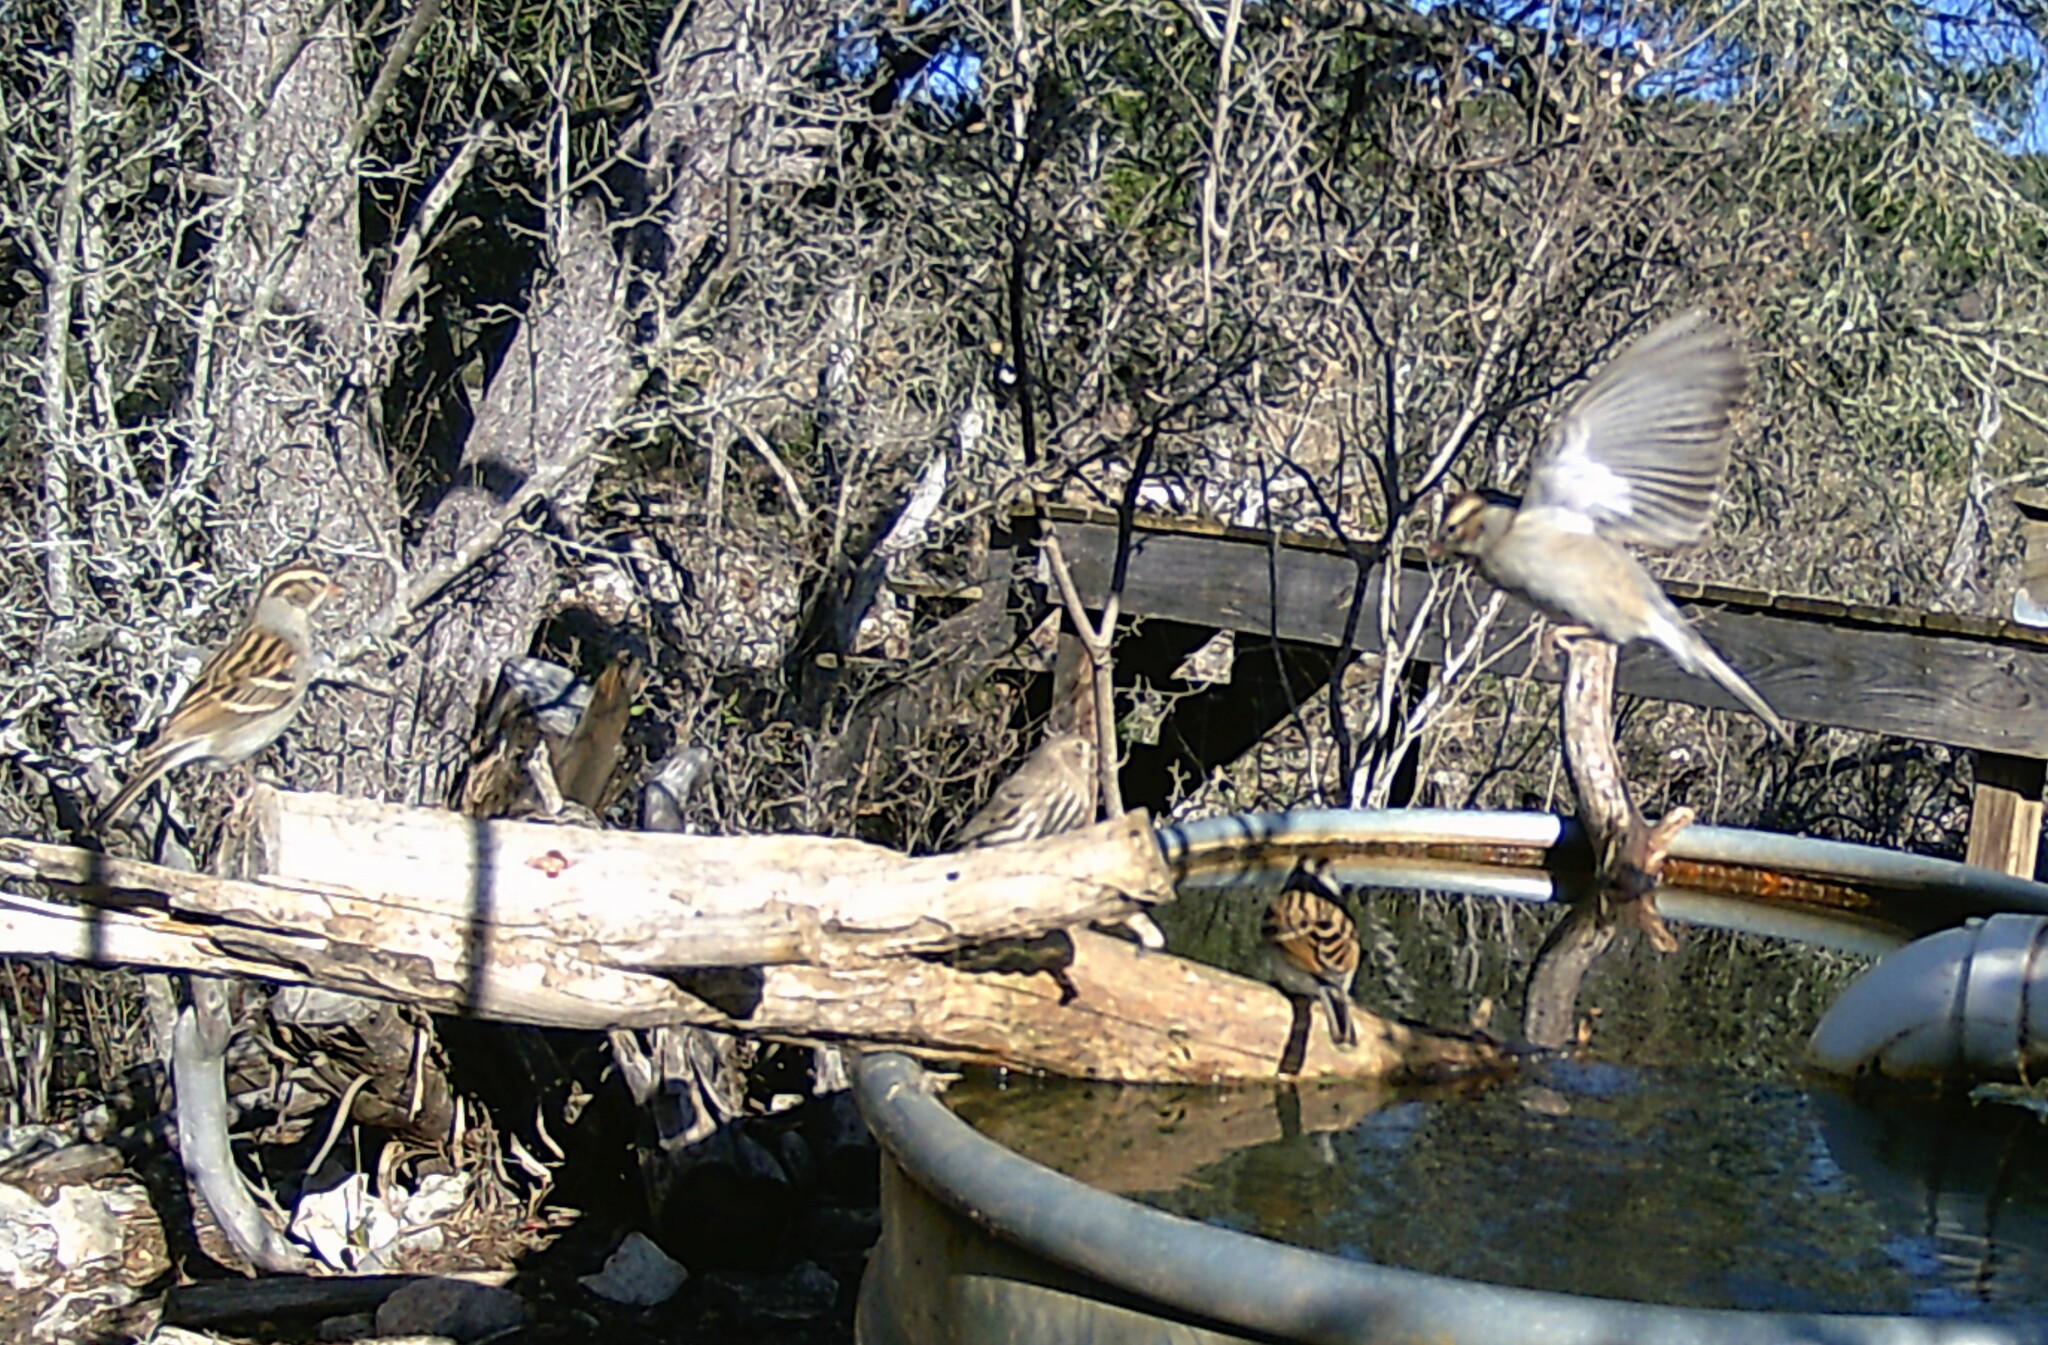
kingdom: Animalia
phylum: Chordata
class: Aves
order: Passeriformes
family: Passerellidae
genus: Spizella
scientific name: Spizella passerina
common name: Chipping sparrow
